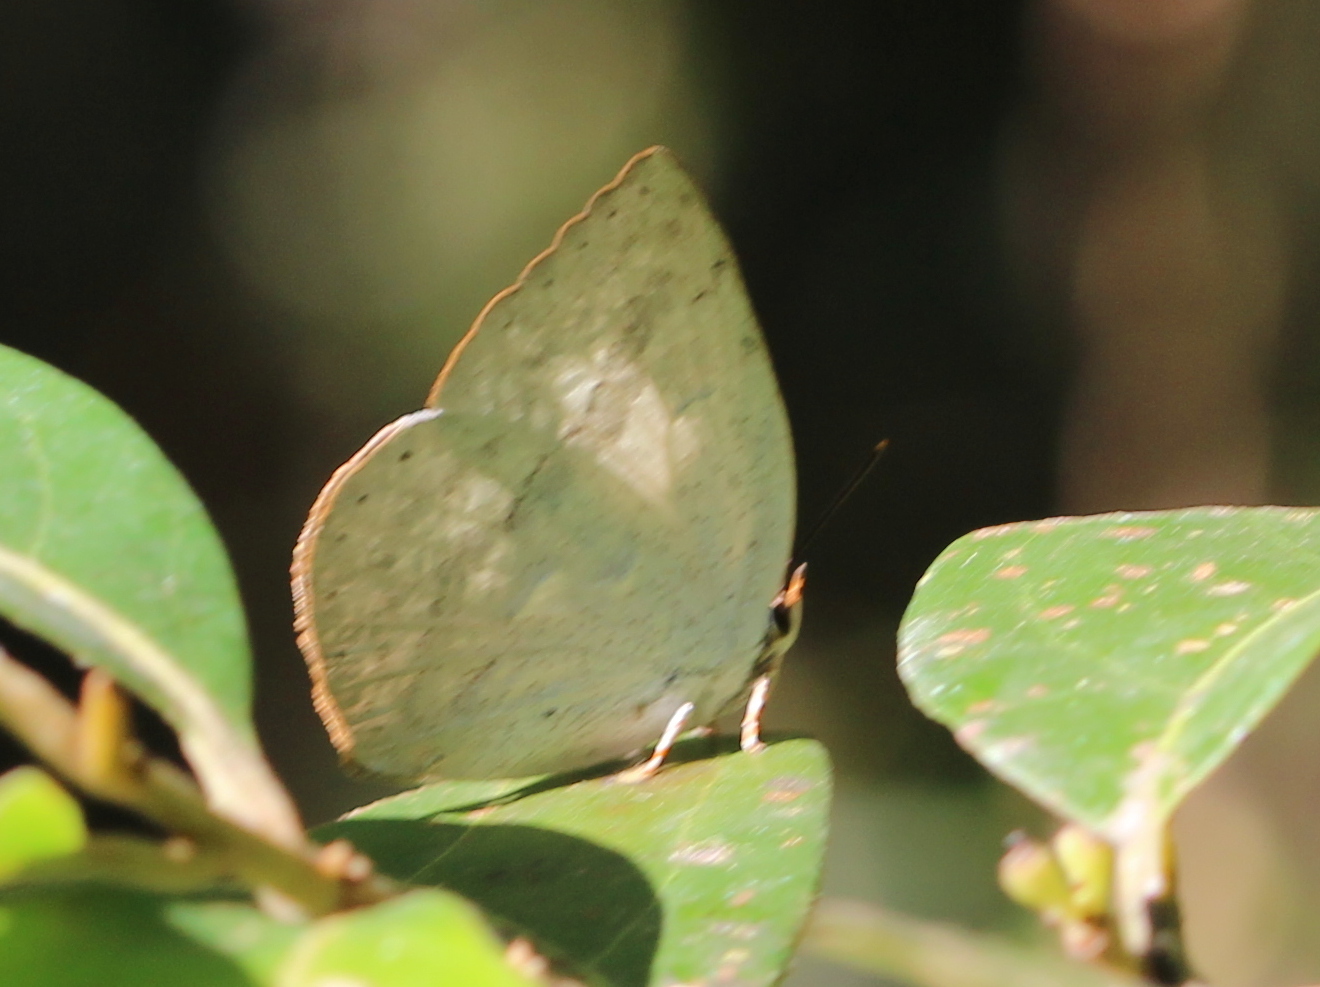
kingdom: Animalia
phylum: Arthropoda
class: Insecta
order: Lepidoptera
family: Lycaenidae
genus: Curetis
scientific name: Curetis siva
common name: Shiva sunbeam
